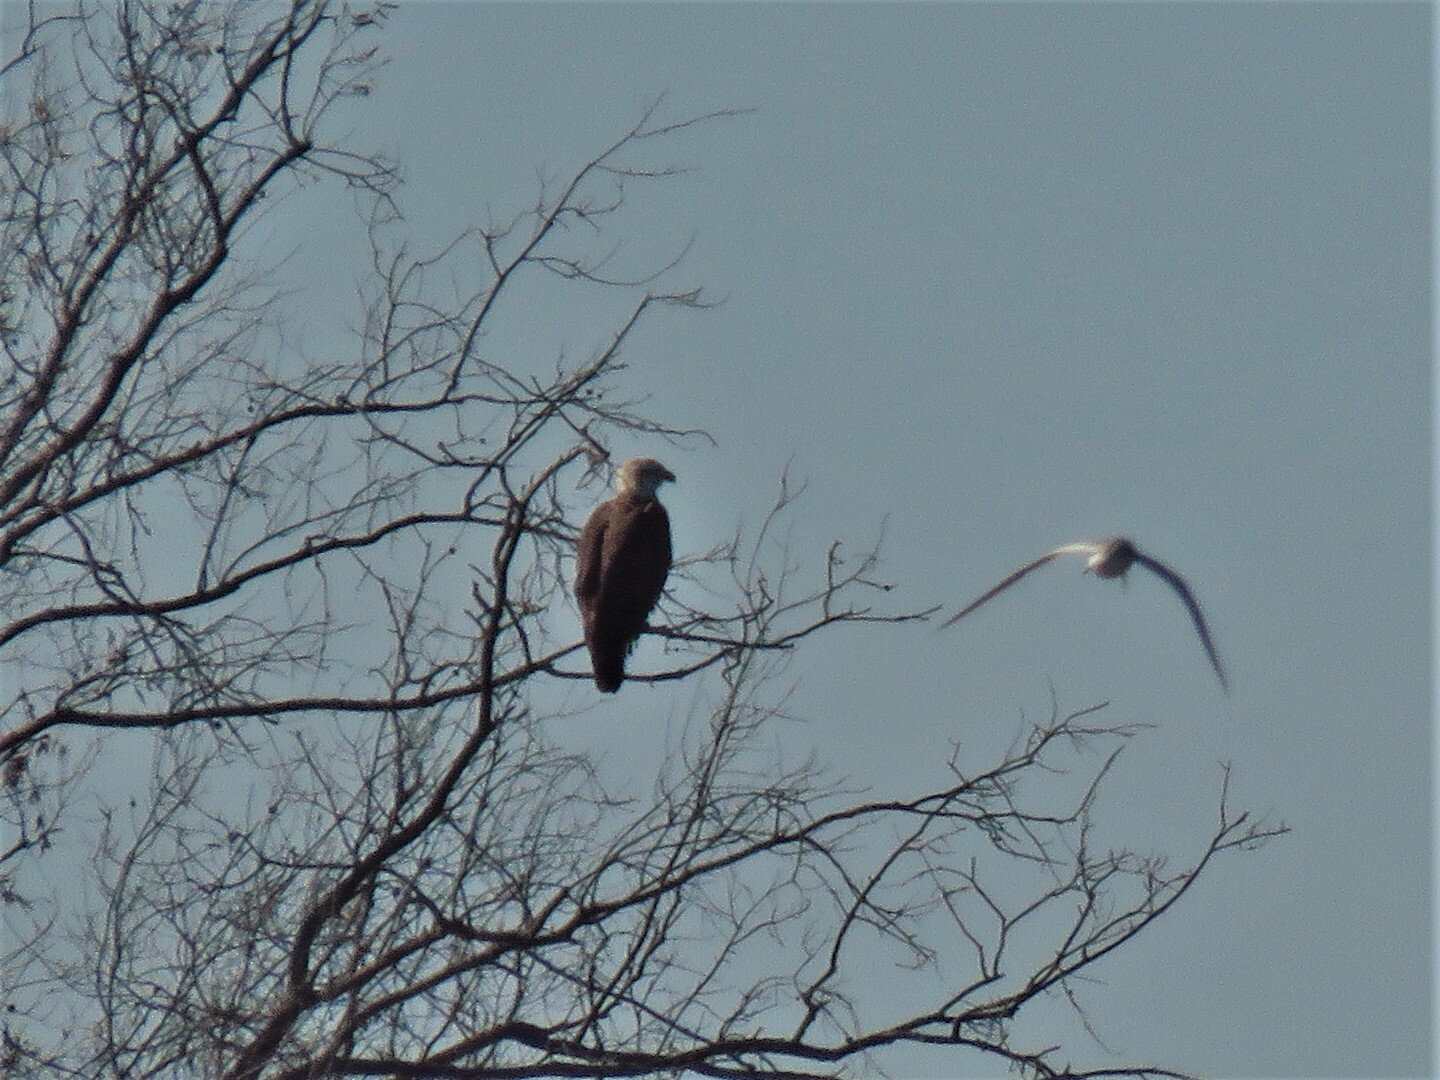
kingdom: Animalia
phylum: Chordata
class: Aves
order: Accipitriformes
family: Accipitridae
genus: Haliaeetus
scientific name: Haliaeetus leucocephalus
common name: Bald eagle
